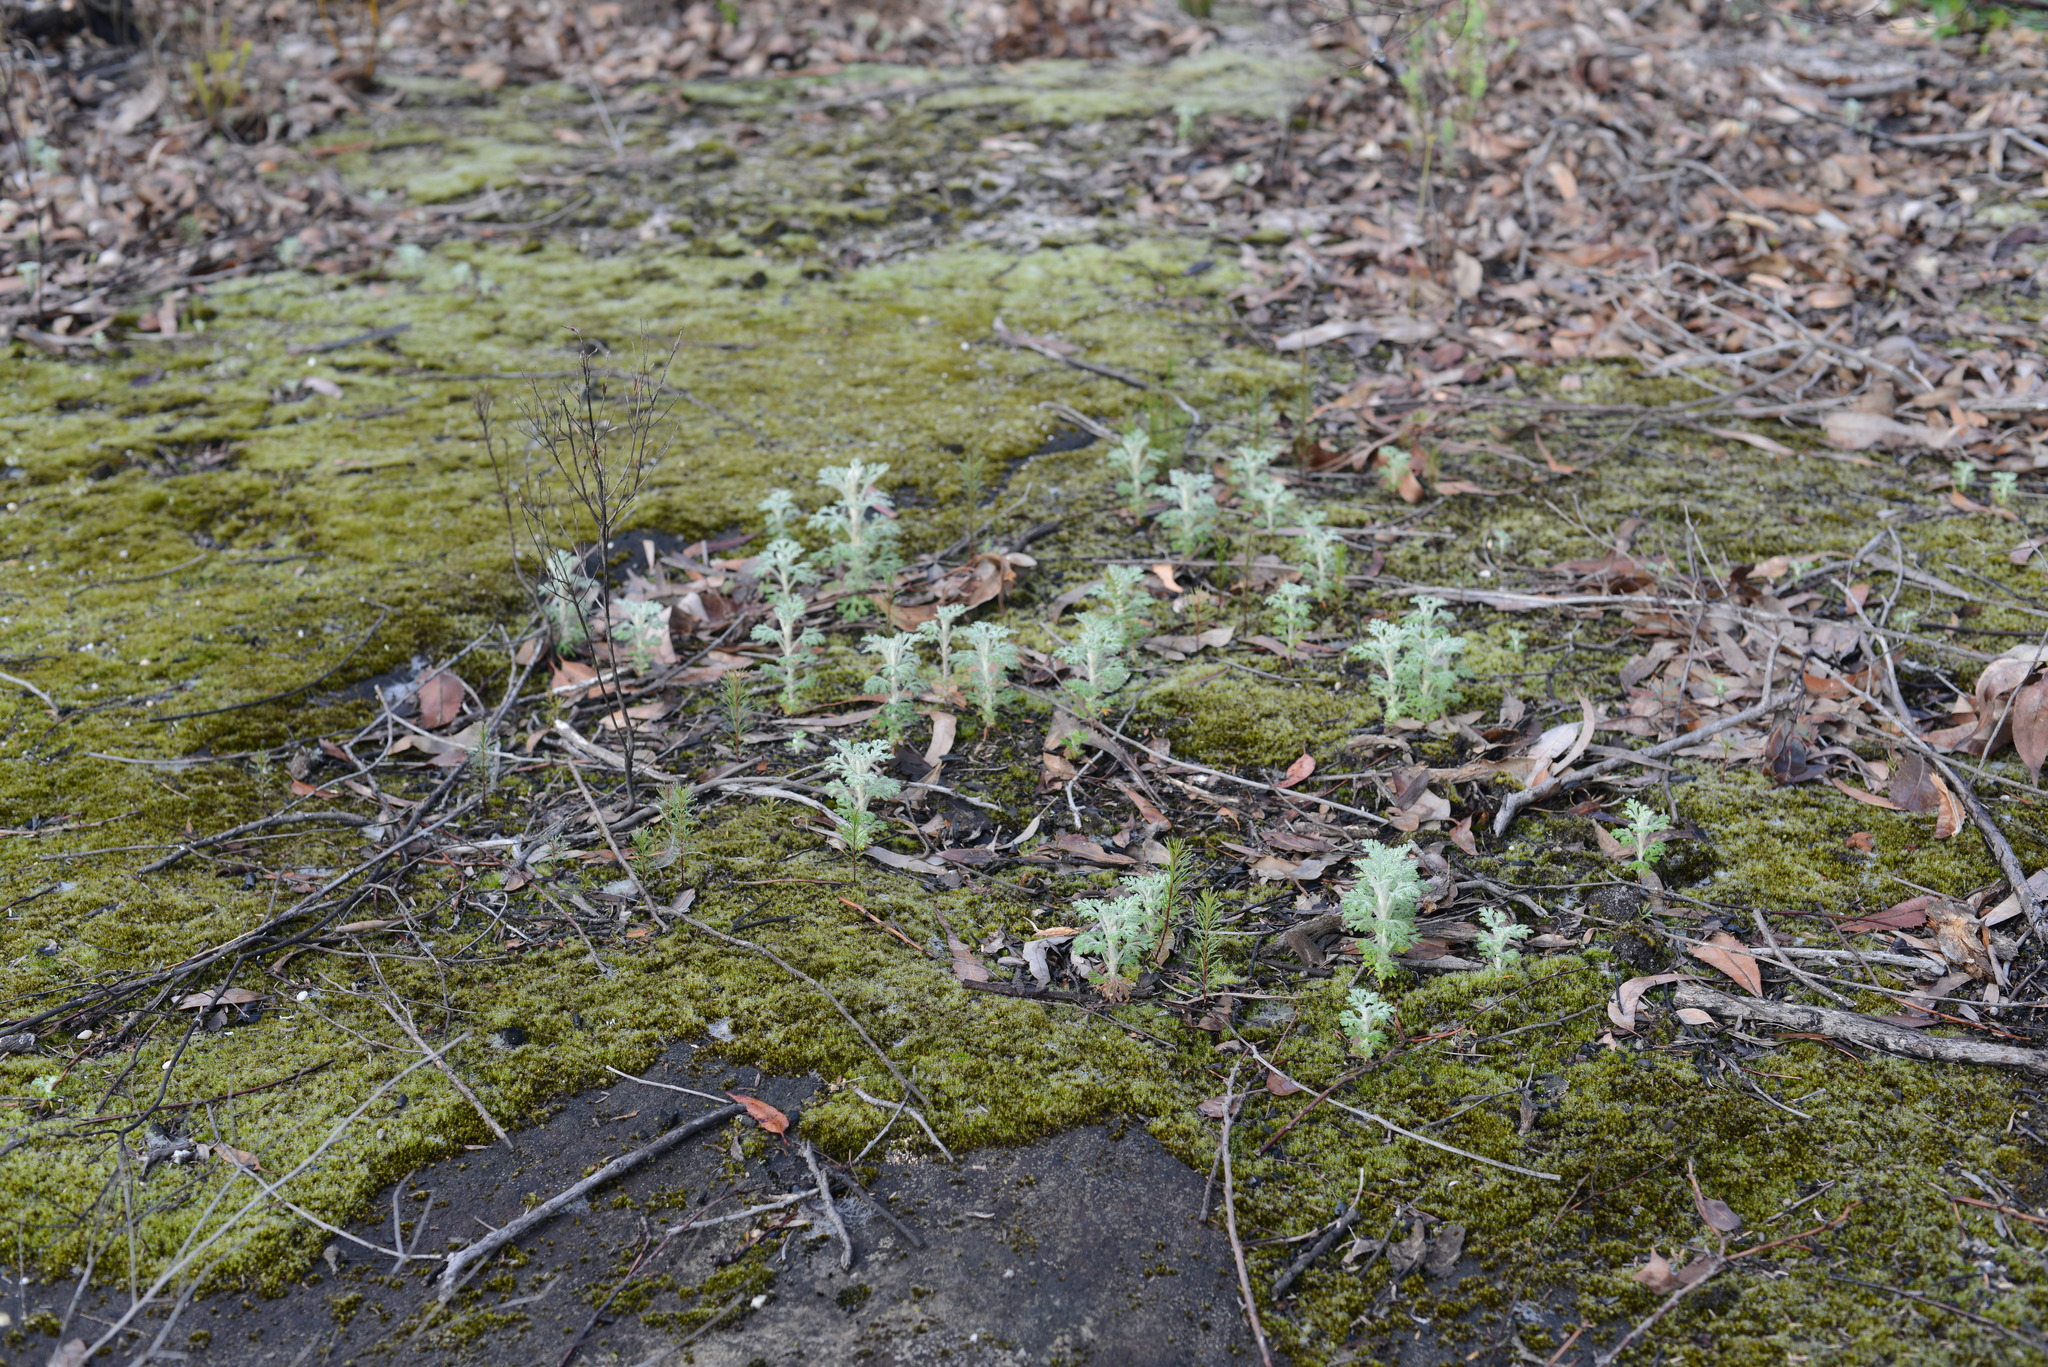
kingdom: Plantae
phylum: Tracheophyta
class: Magnoliopsida
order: Apiales
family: Apiaceae
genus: Actinotus
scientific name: Actinotus helianthi
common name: Flannel-flower
